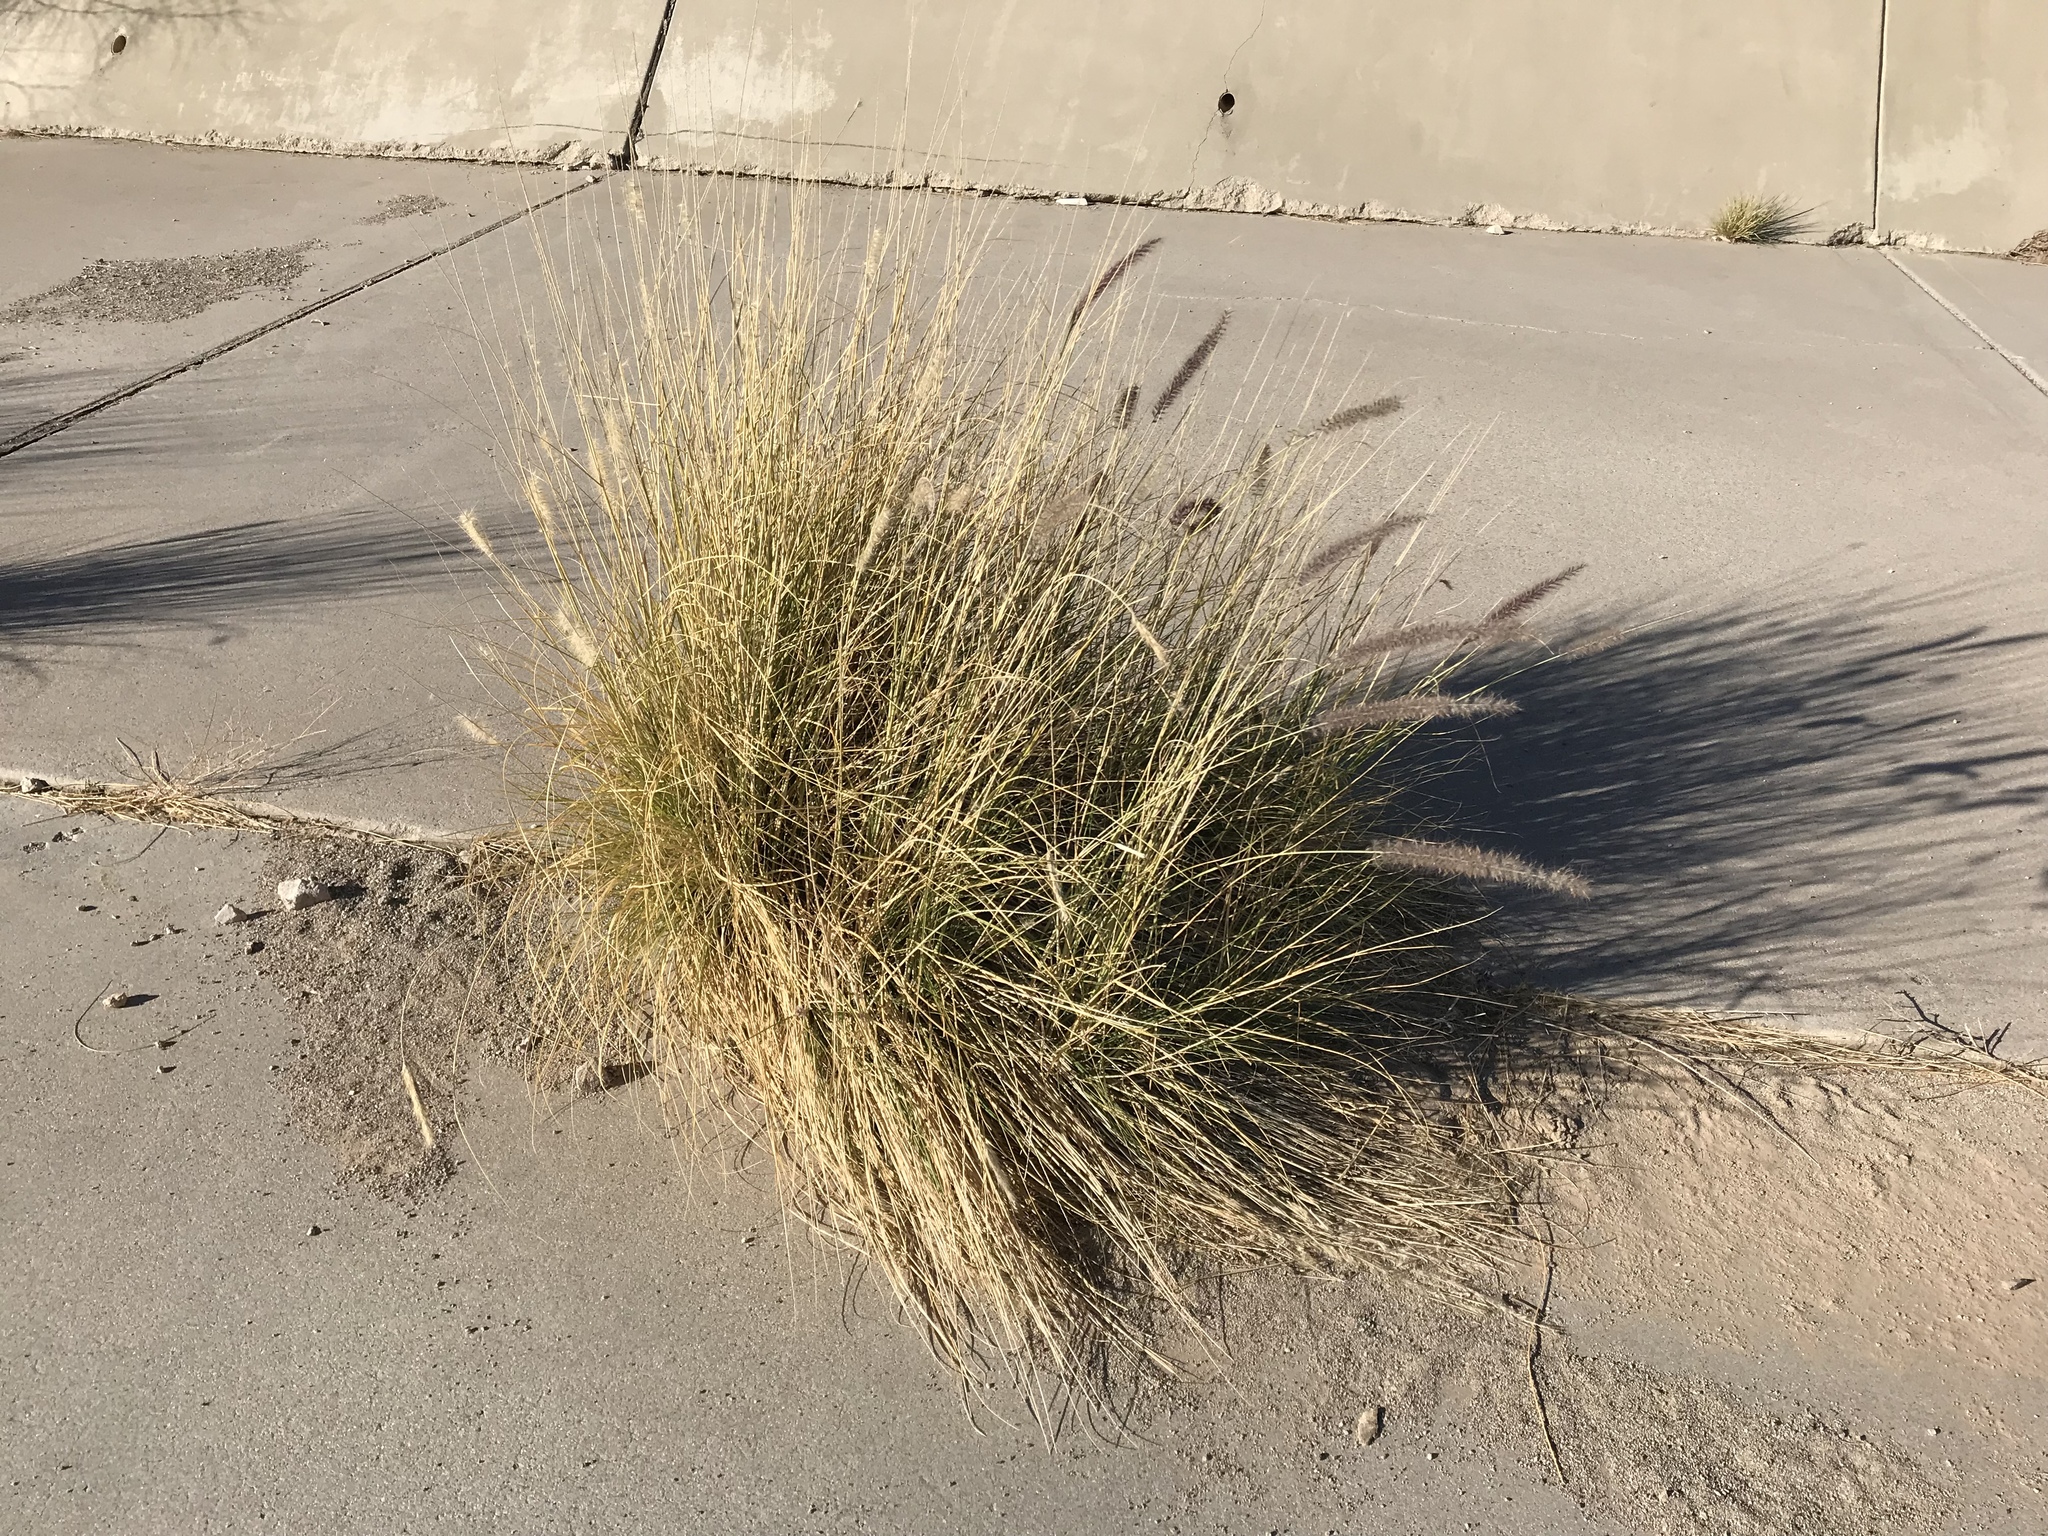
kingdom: Plantae
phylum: Tracheophyta
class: Liliopsida
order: Poales
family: Poaceae
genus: Cenchrus
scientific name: Cenchrus setaceus
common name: Crimson fountaingrass
